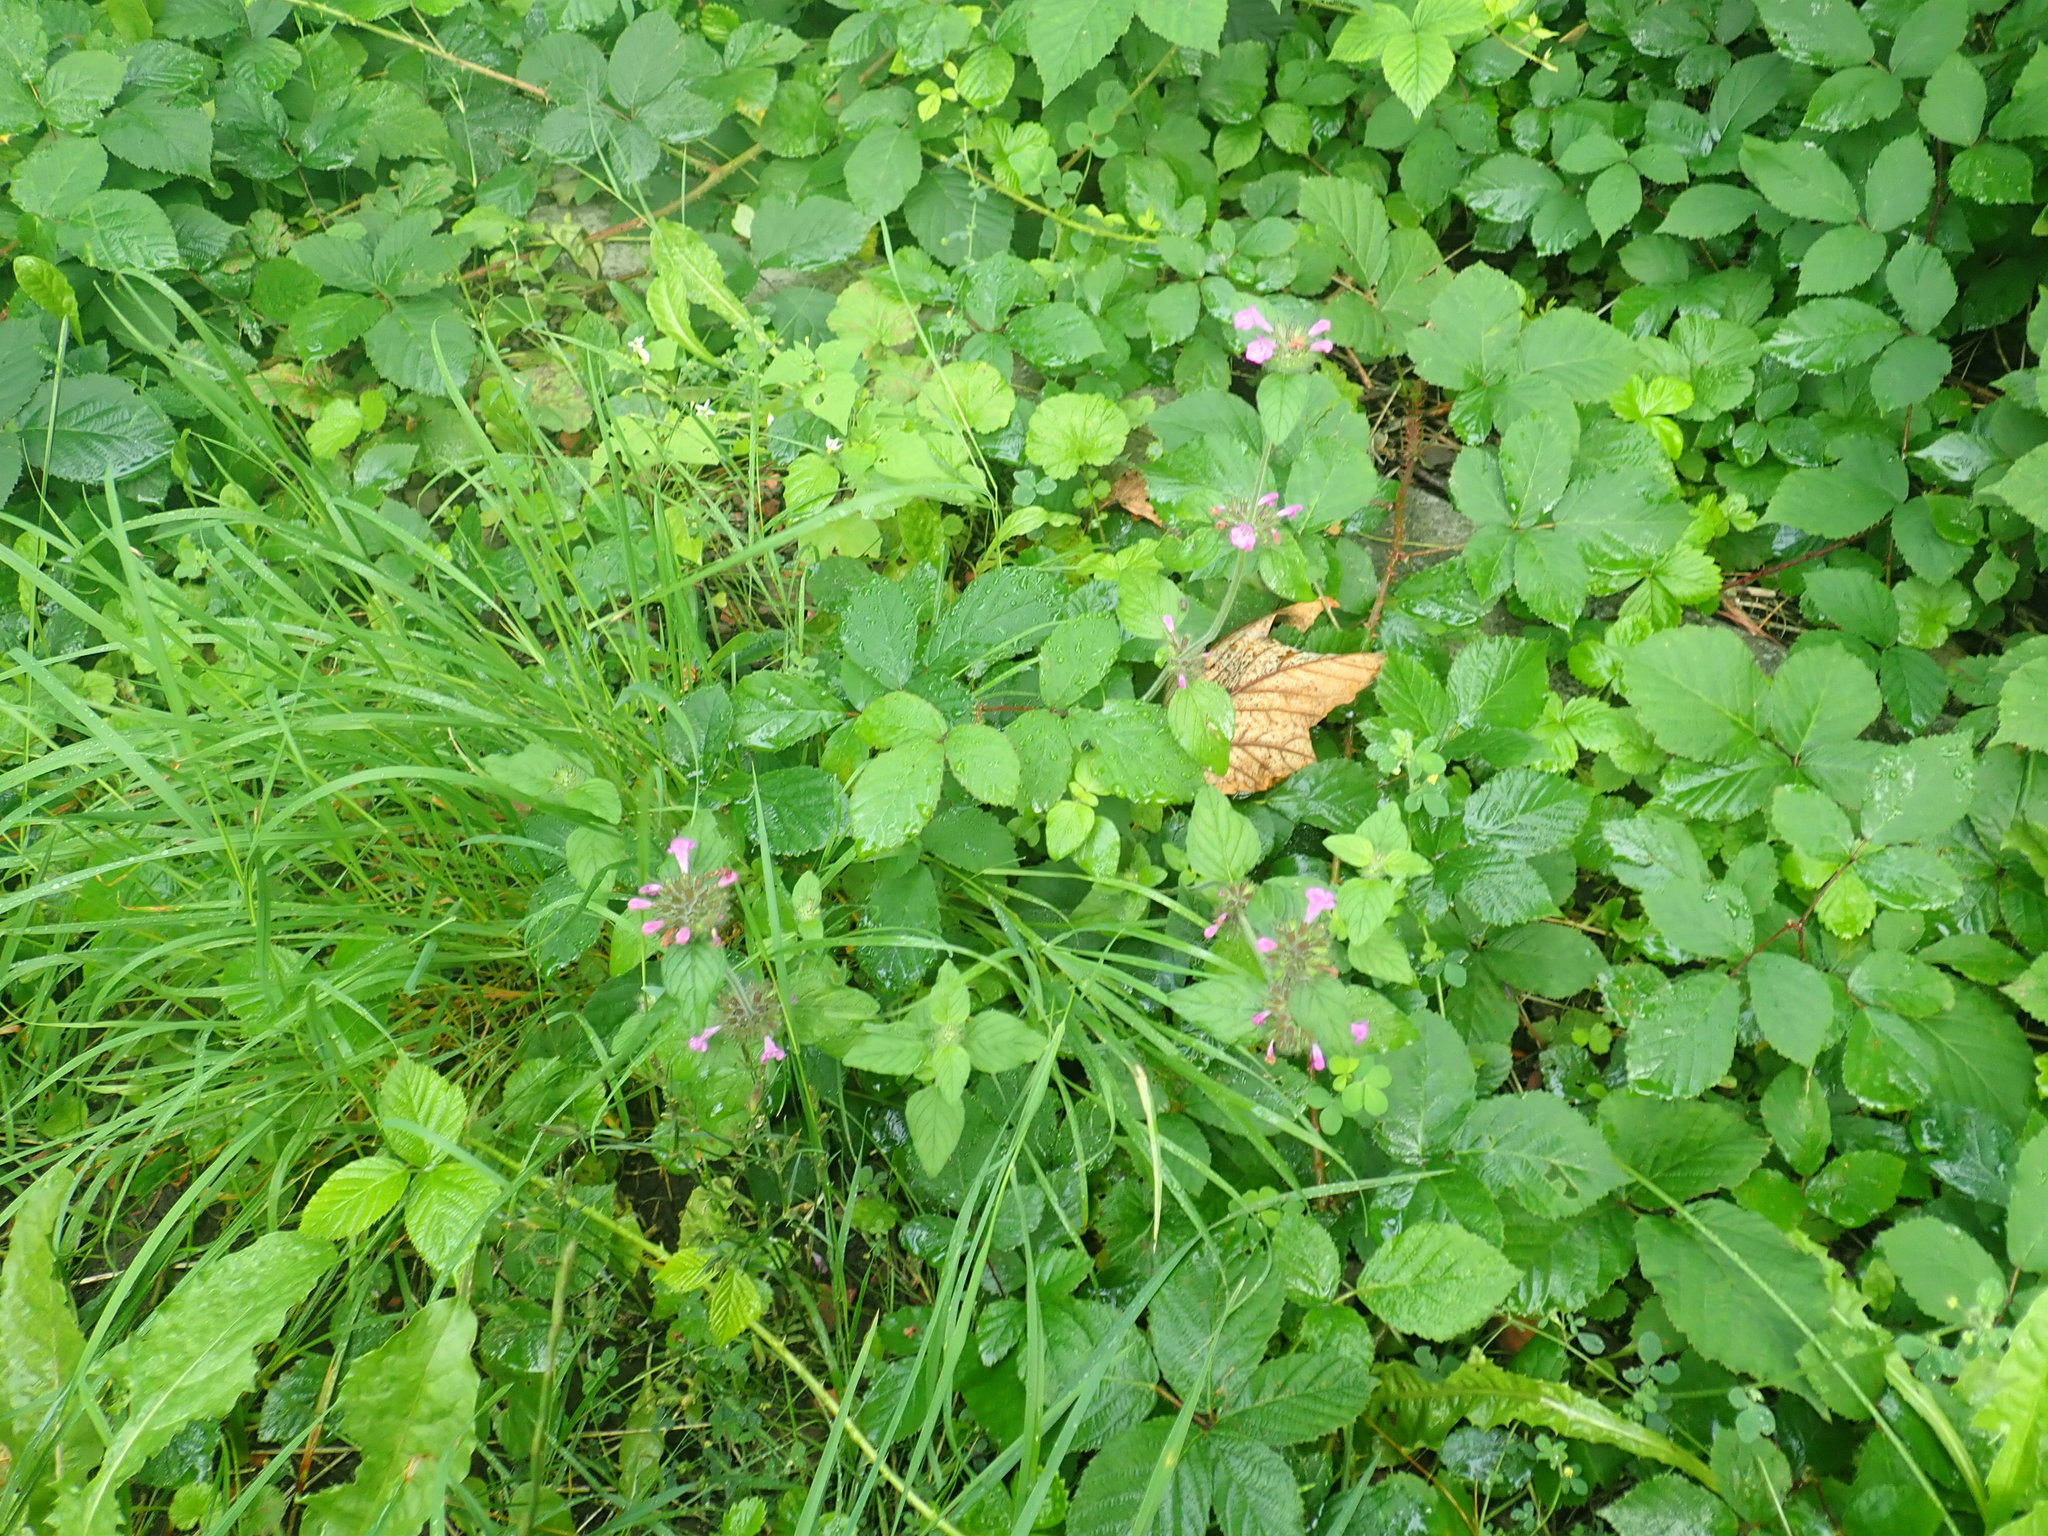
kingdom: Plantae
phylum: Tracheophyta
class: Magnoliopsida
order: Lamiales
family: Lamiaceae
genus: Clinopodium
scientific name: Clinopodium vulgare
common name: Wild basil
